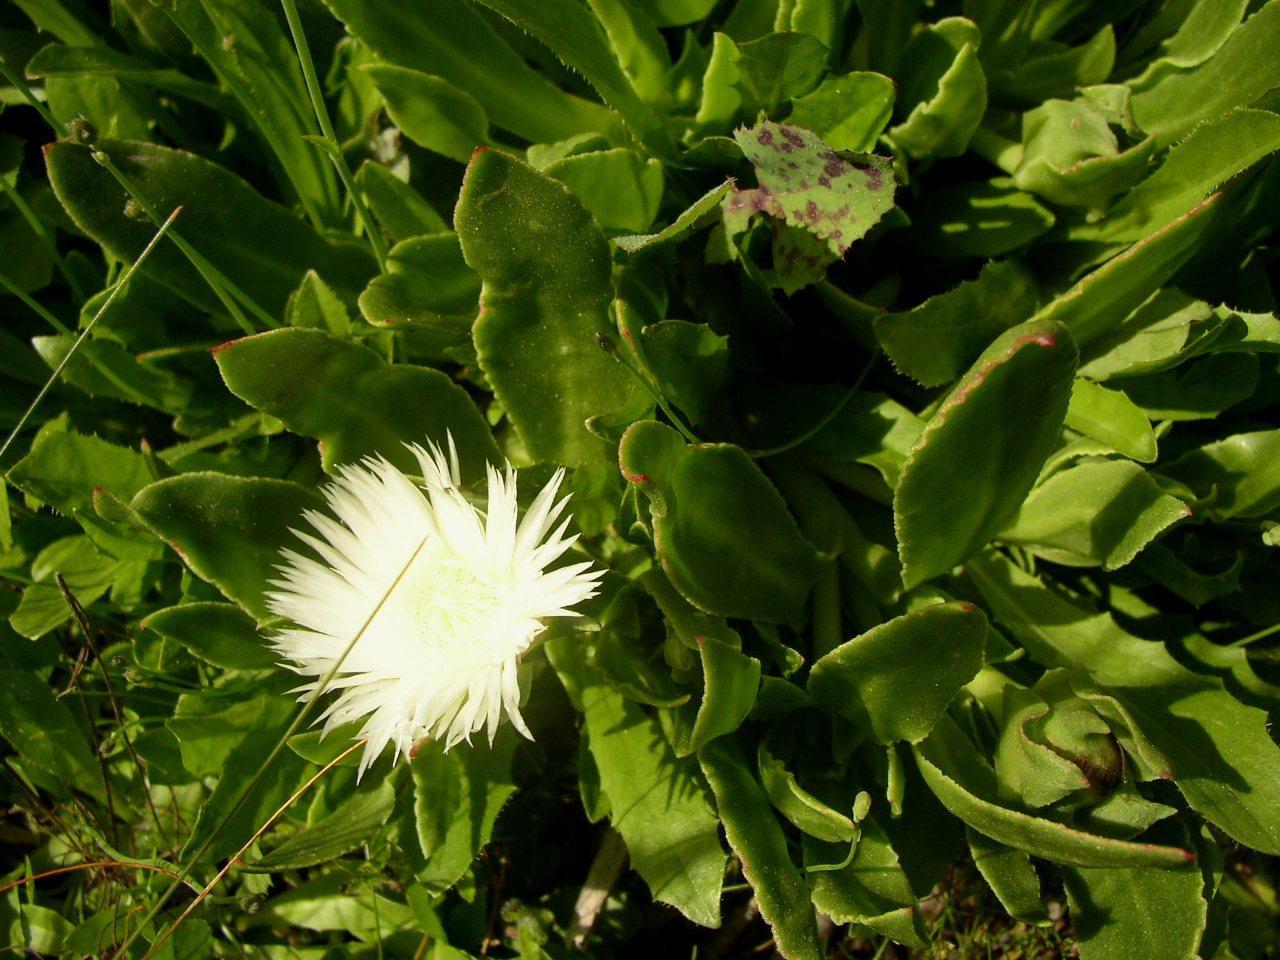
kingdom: Plantae
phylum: Tracheophyta
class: Magnoliopsida
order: Caryophyllales
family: Aizoaceae
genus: Skiatophytum
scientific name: Skiatophytum tripolium
